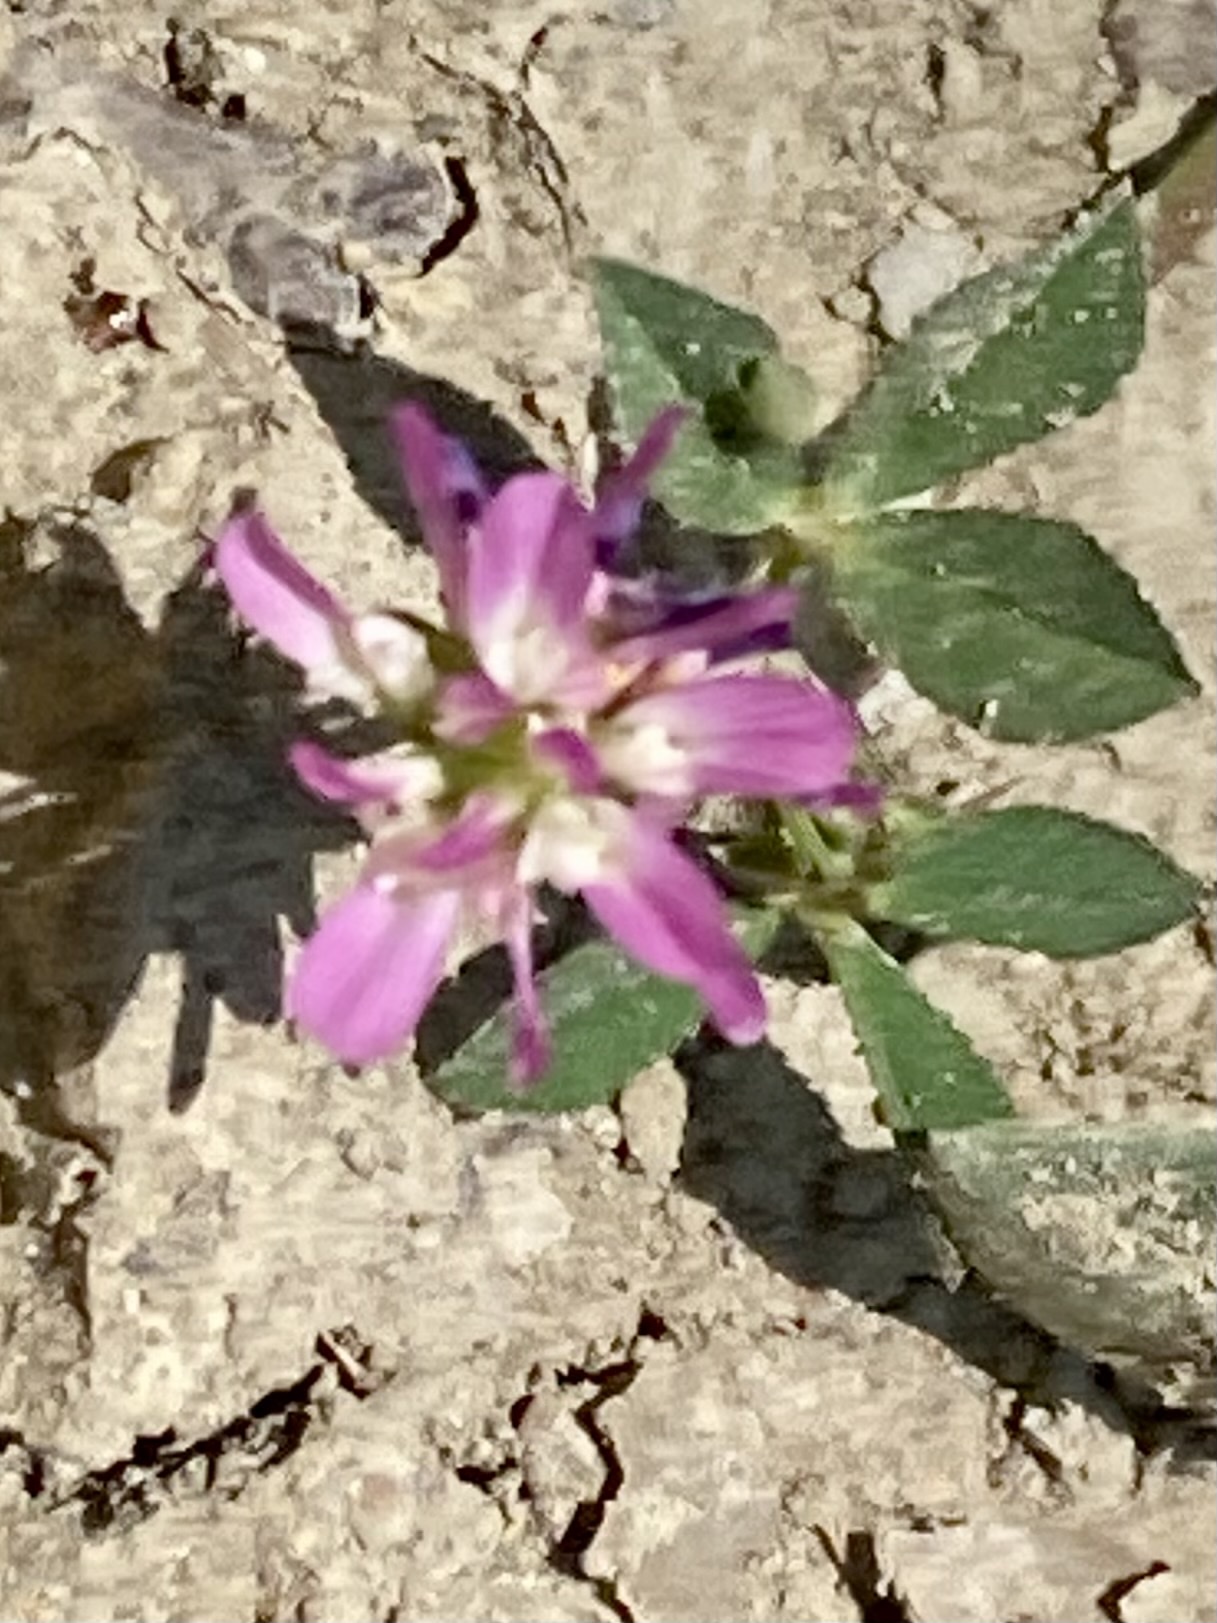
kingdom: Plantae
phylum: Tracheophyta
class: Magnoliopsida
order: Fabales
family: Fabaceae
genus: Trifolium
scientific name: Trifolium resupinatum
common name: Reversed clover
